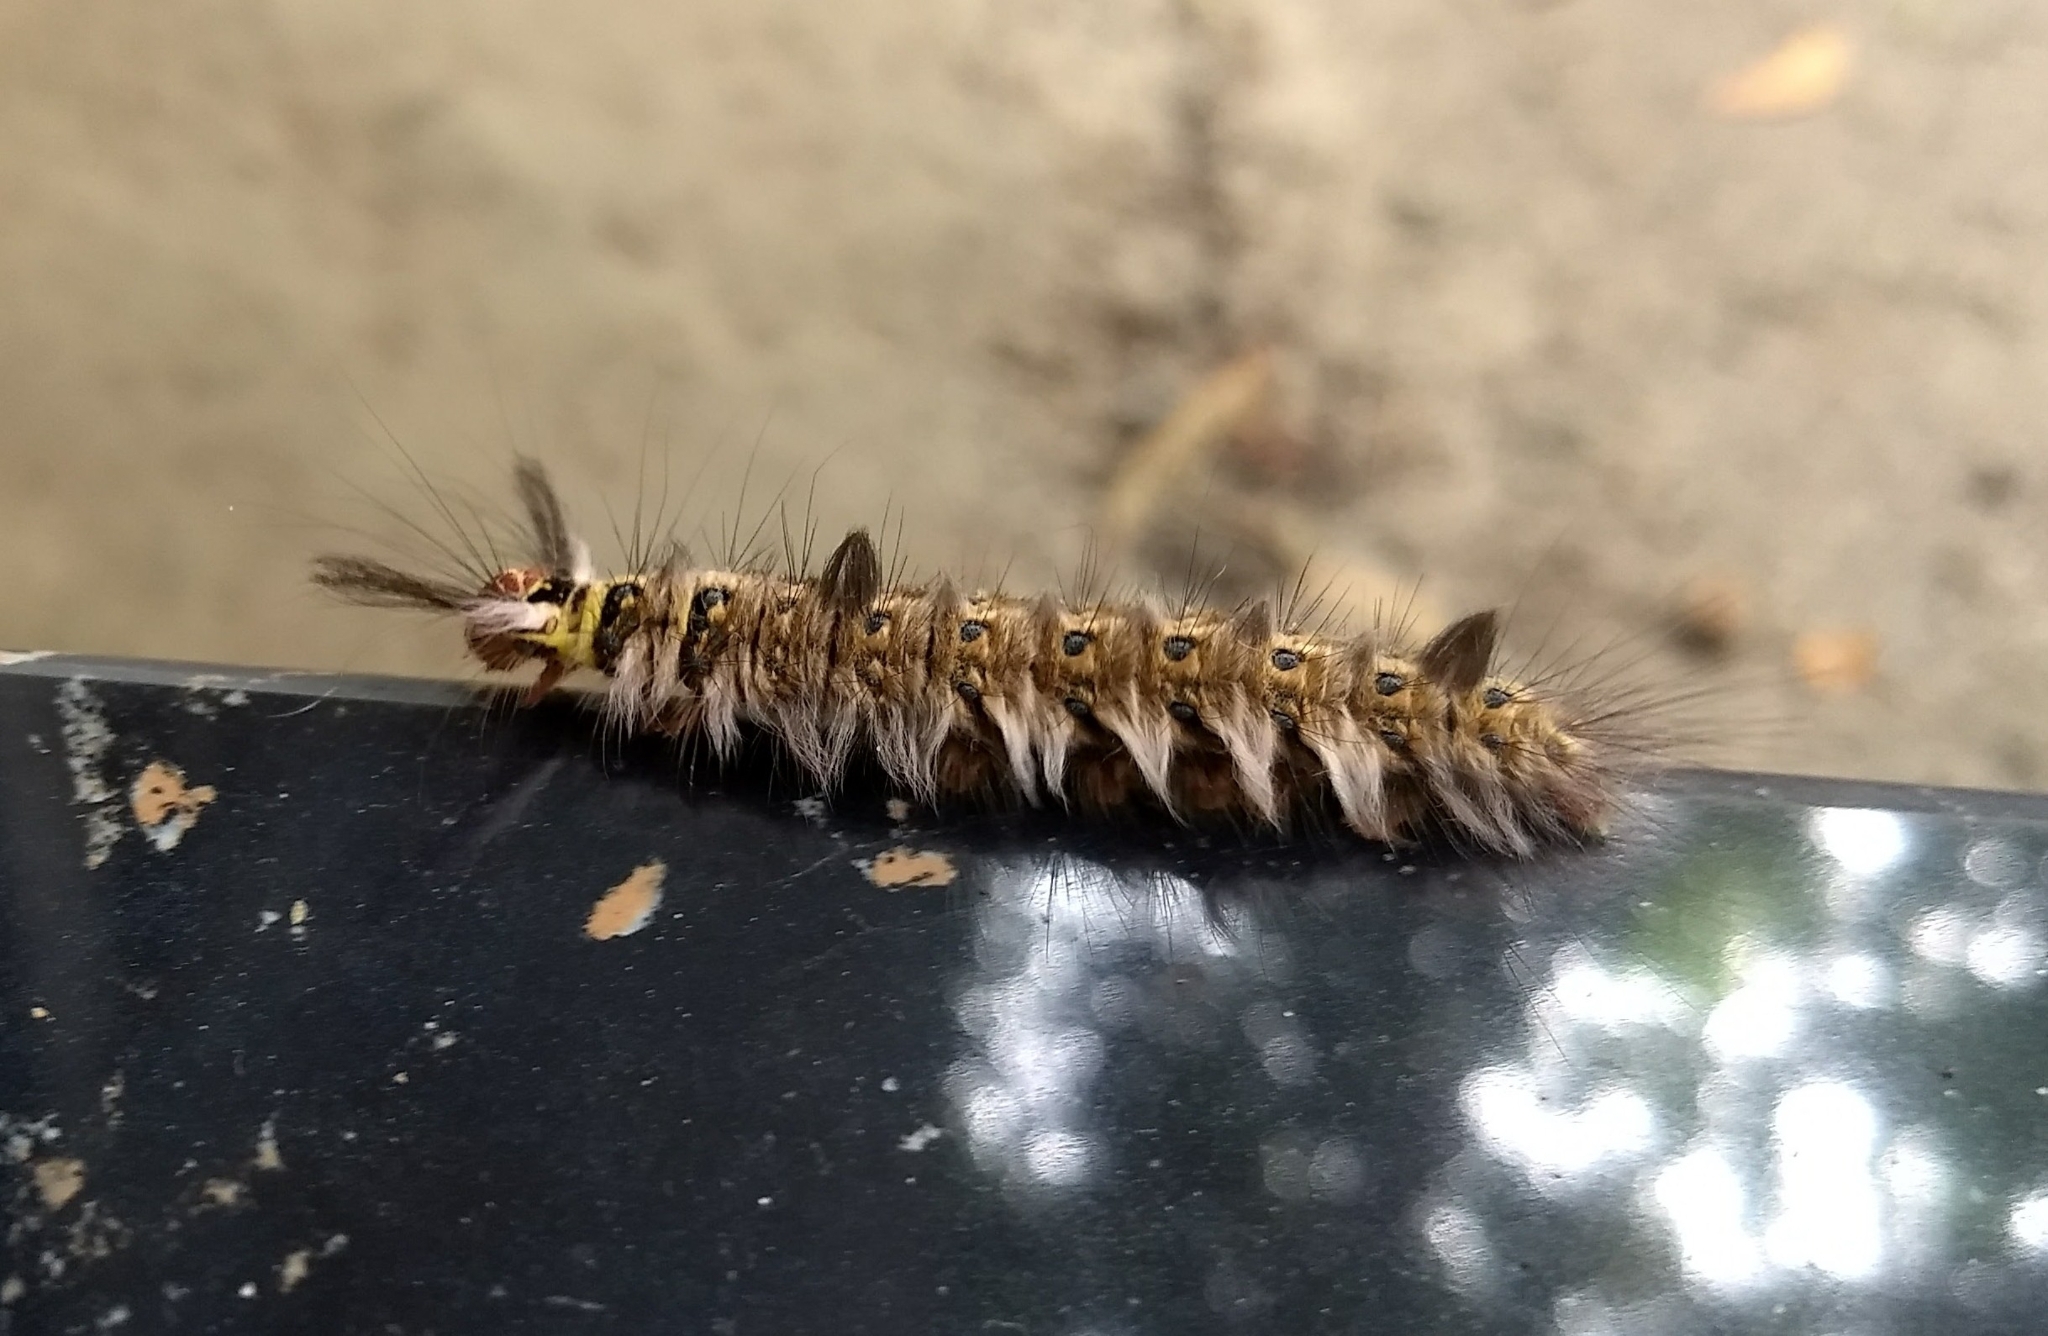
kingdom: Animalia
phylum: Arthropoda
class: Insecta
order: Lepidoptera
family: Lasiocampidae
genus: Trabala
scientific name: Trabala vishnou
